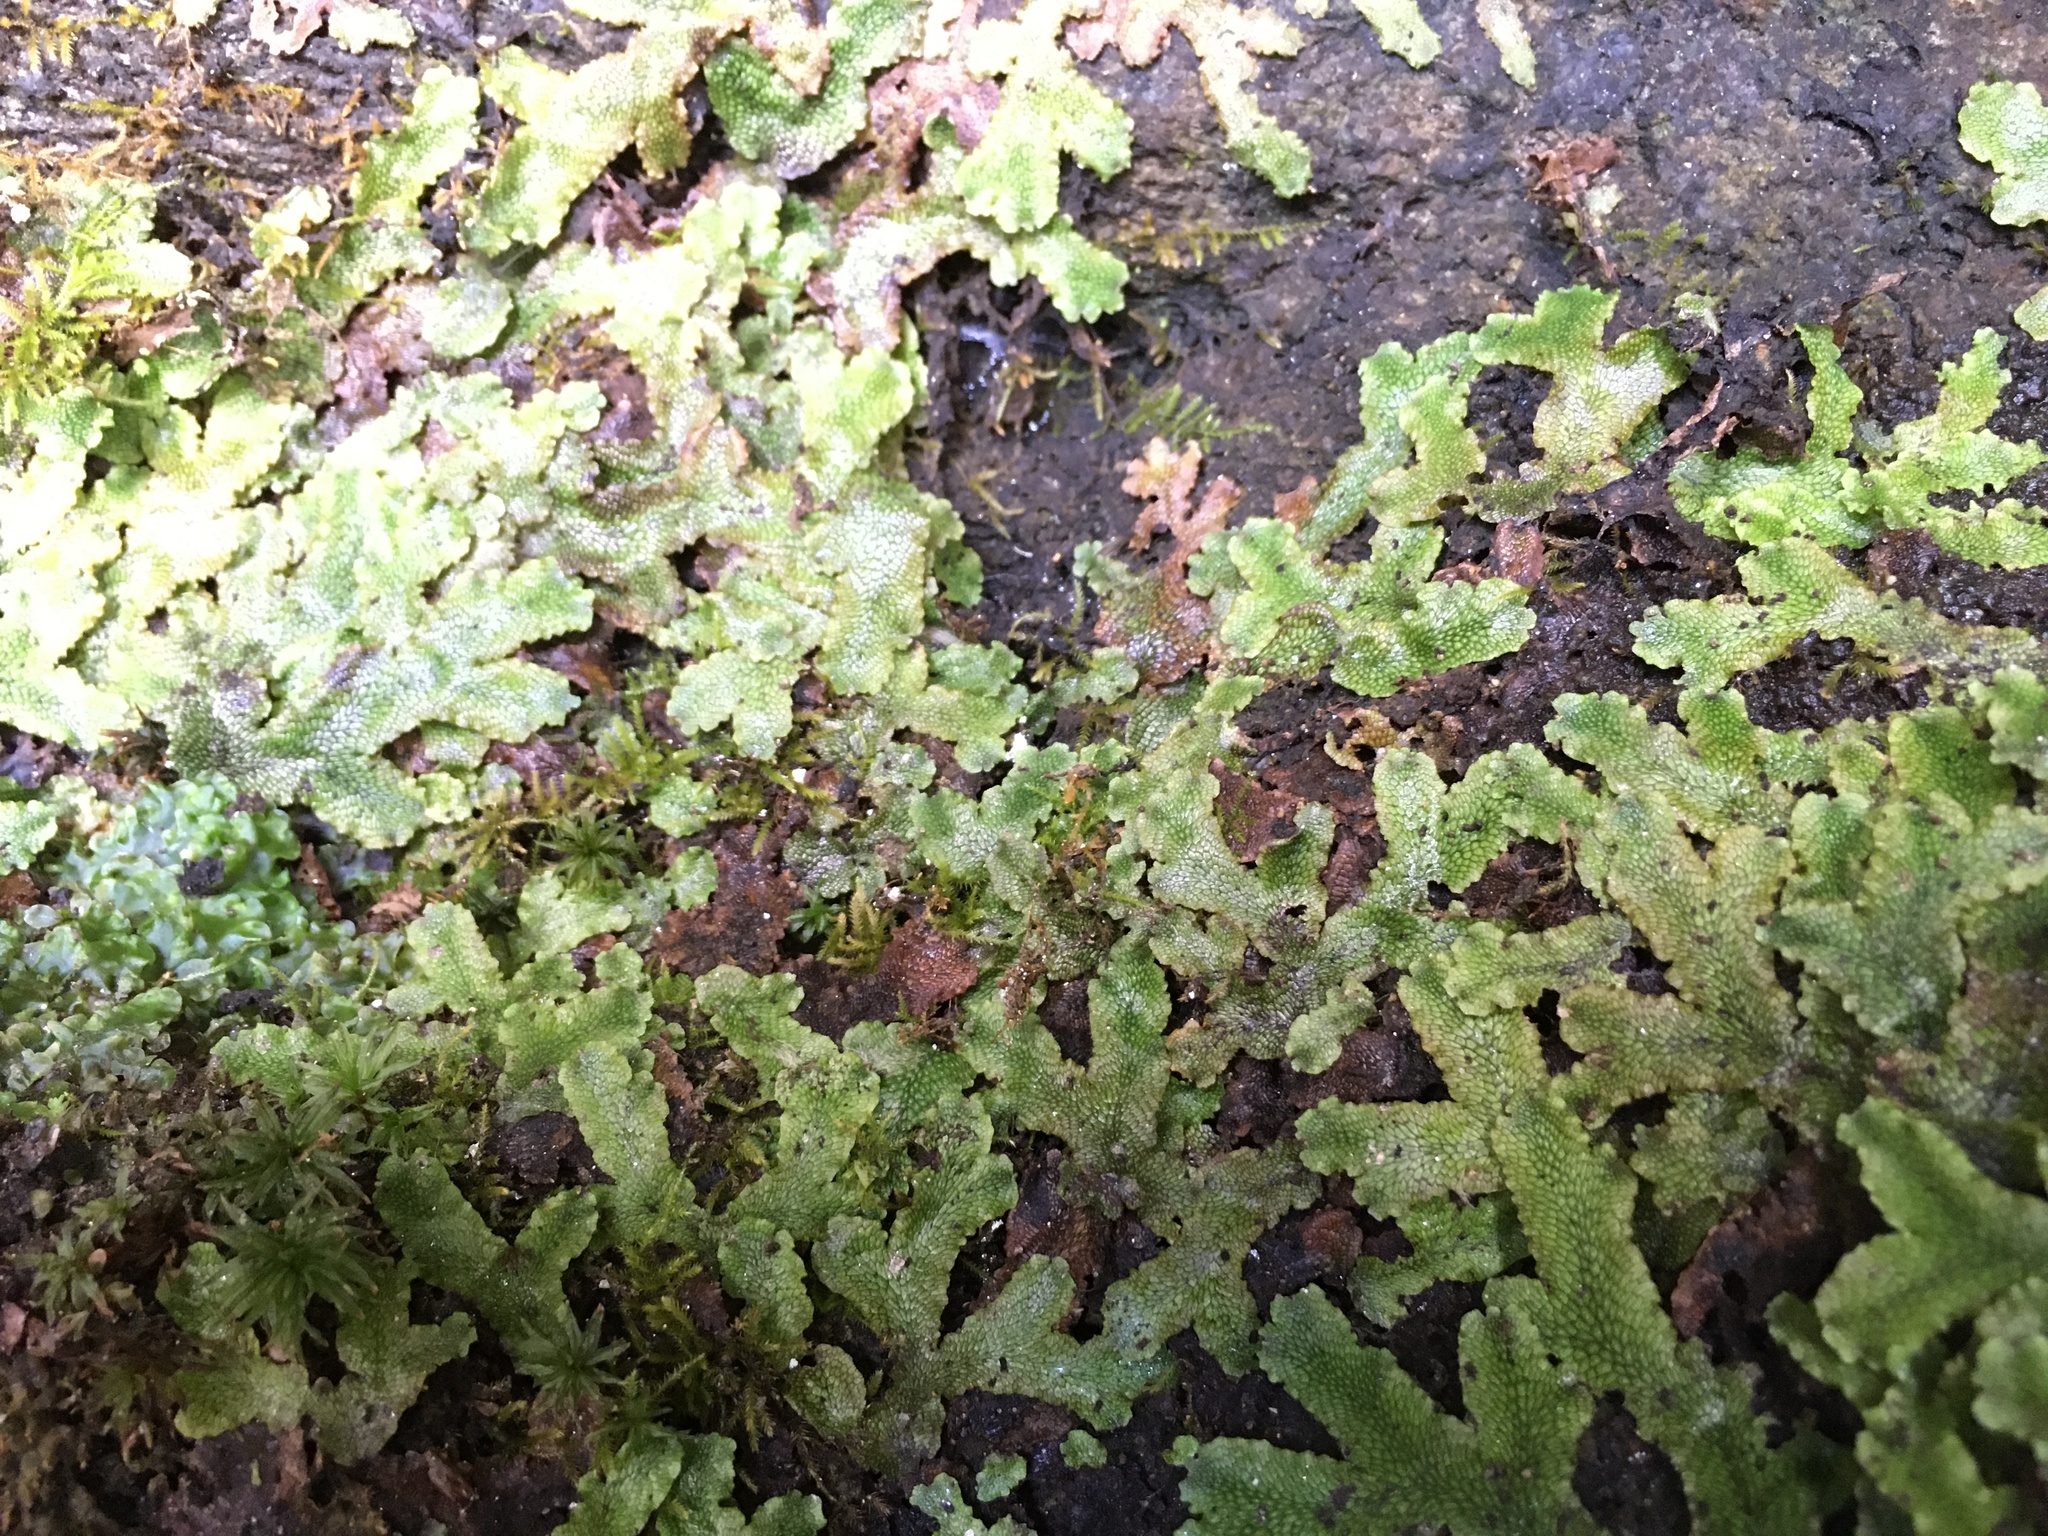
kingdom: Plantae
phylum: Marchantiophyta
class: Marchantiopsida
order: Marchantiales
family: Conocephalaceae
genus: Conocephalum
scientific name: Conocephalum salebrosum
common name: Cat-tongue liverwort
